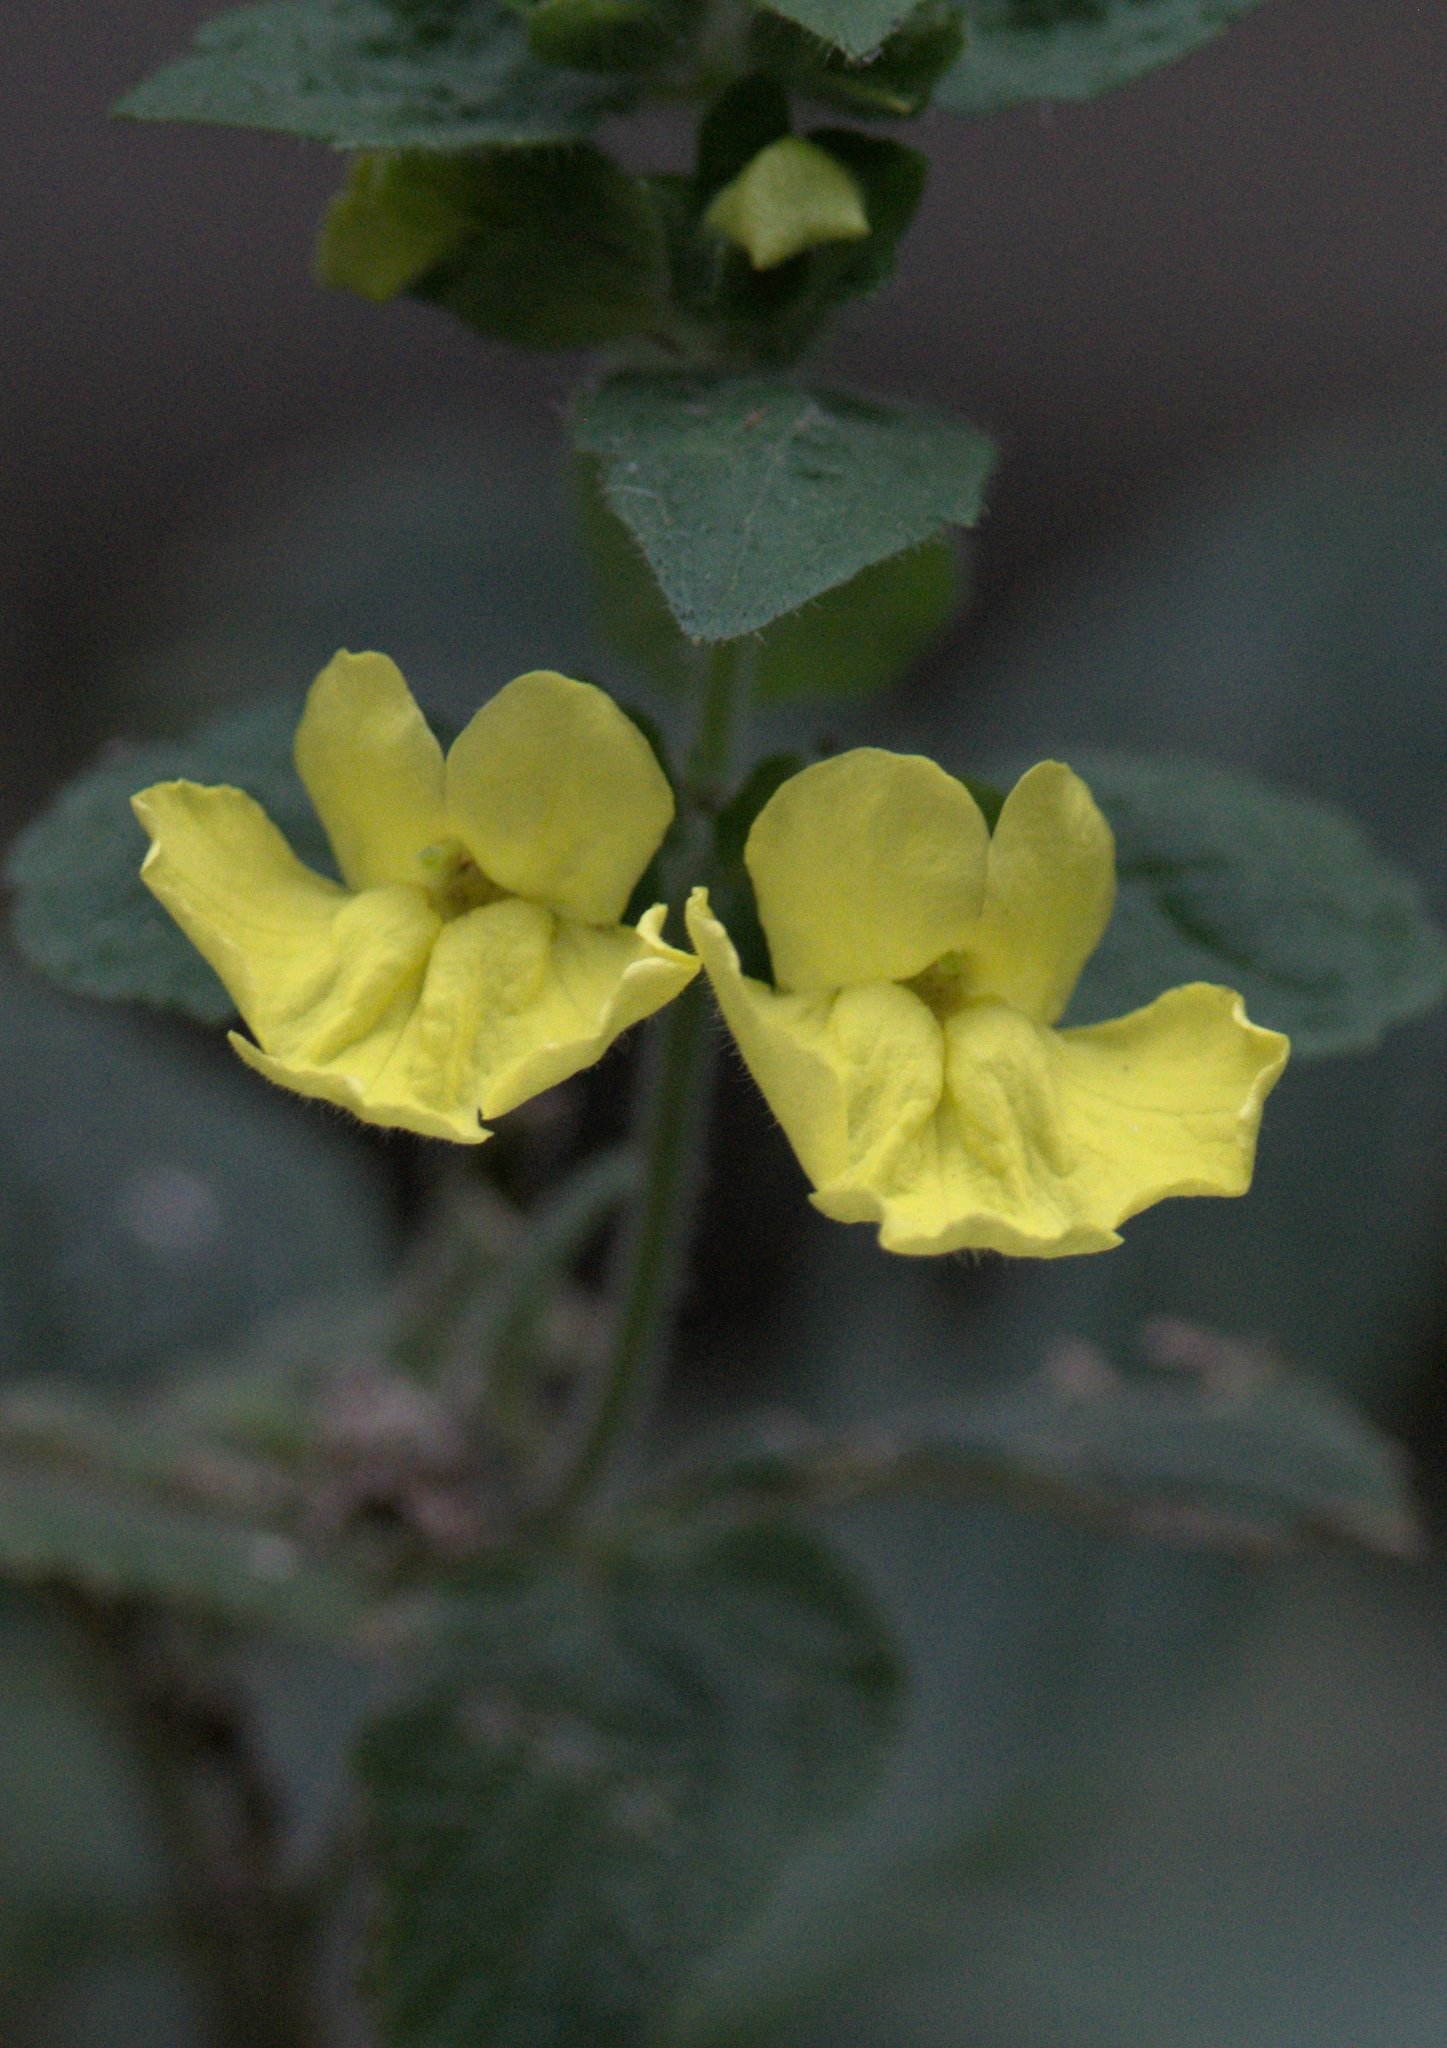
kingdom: Plantae
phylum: Tracheophyta
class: Magnoliopsida
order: Lamiales
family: Orobanchaceae
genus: Lindenbergia
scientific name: Lindenbergia grandiflora
